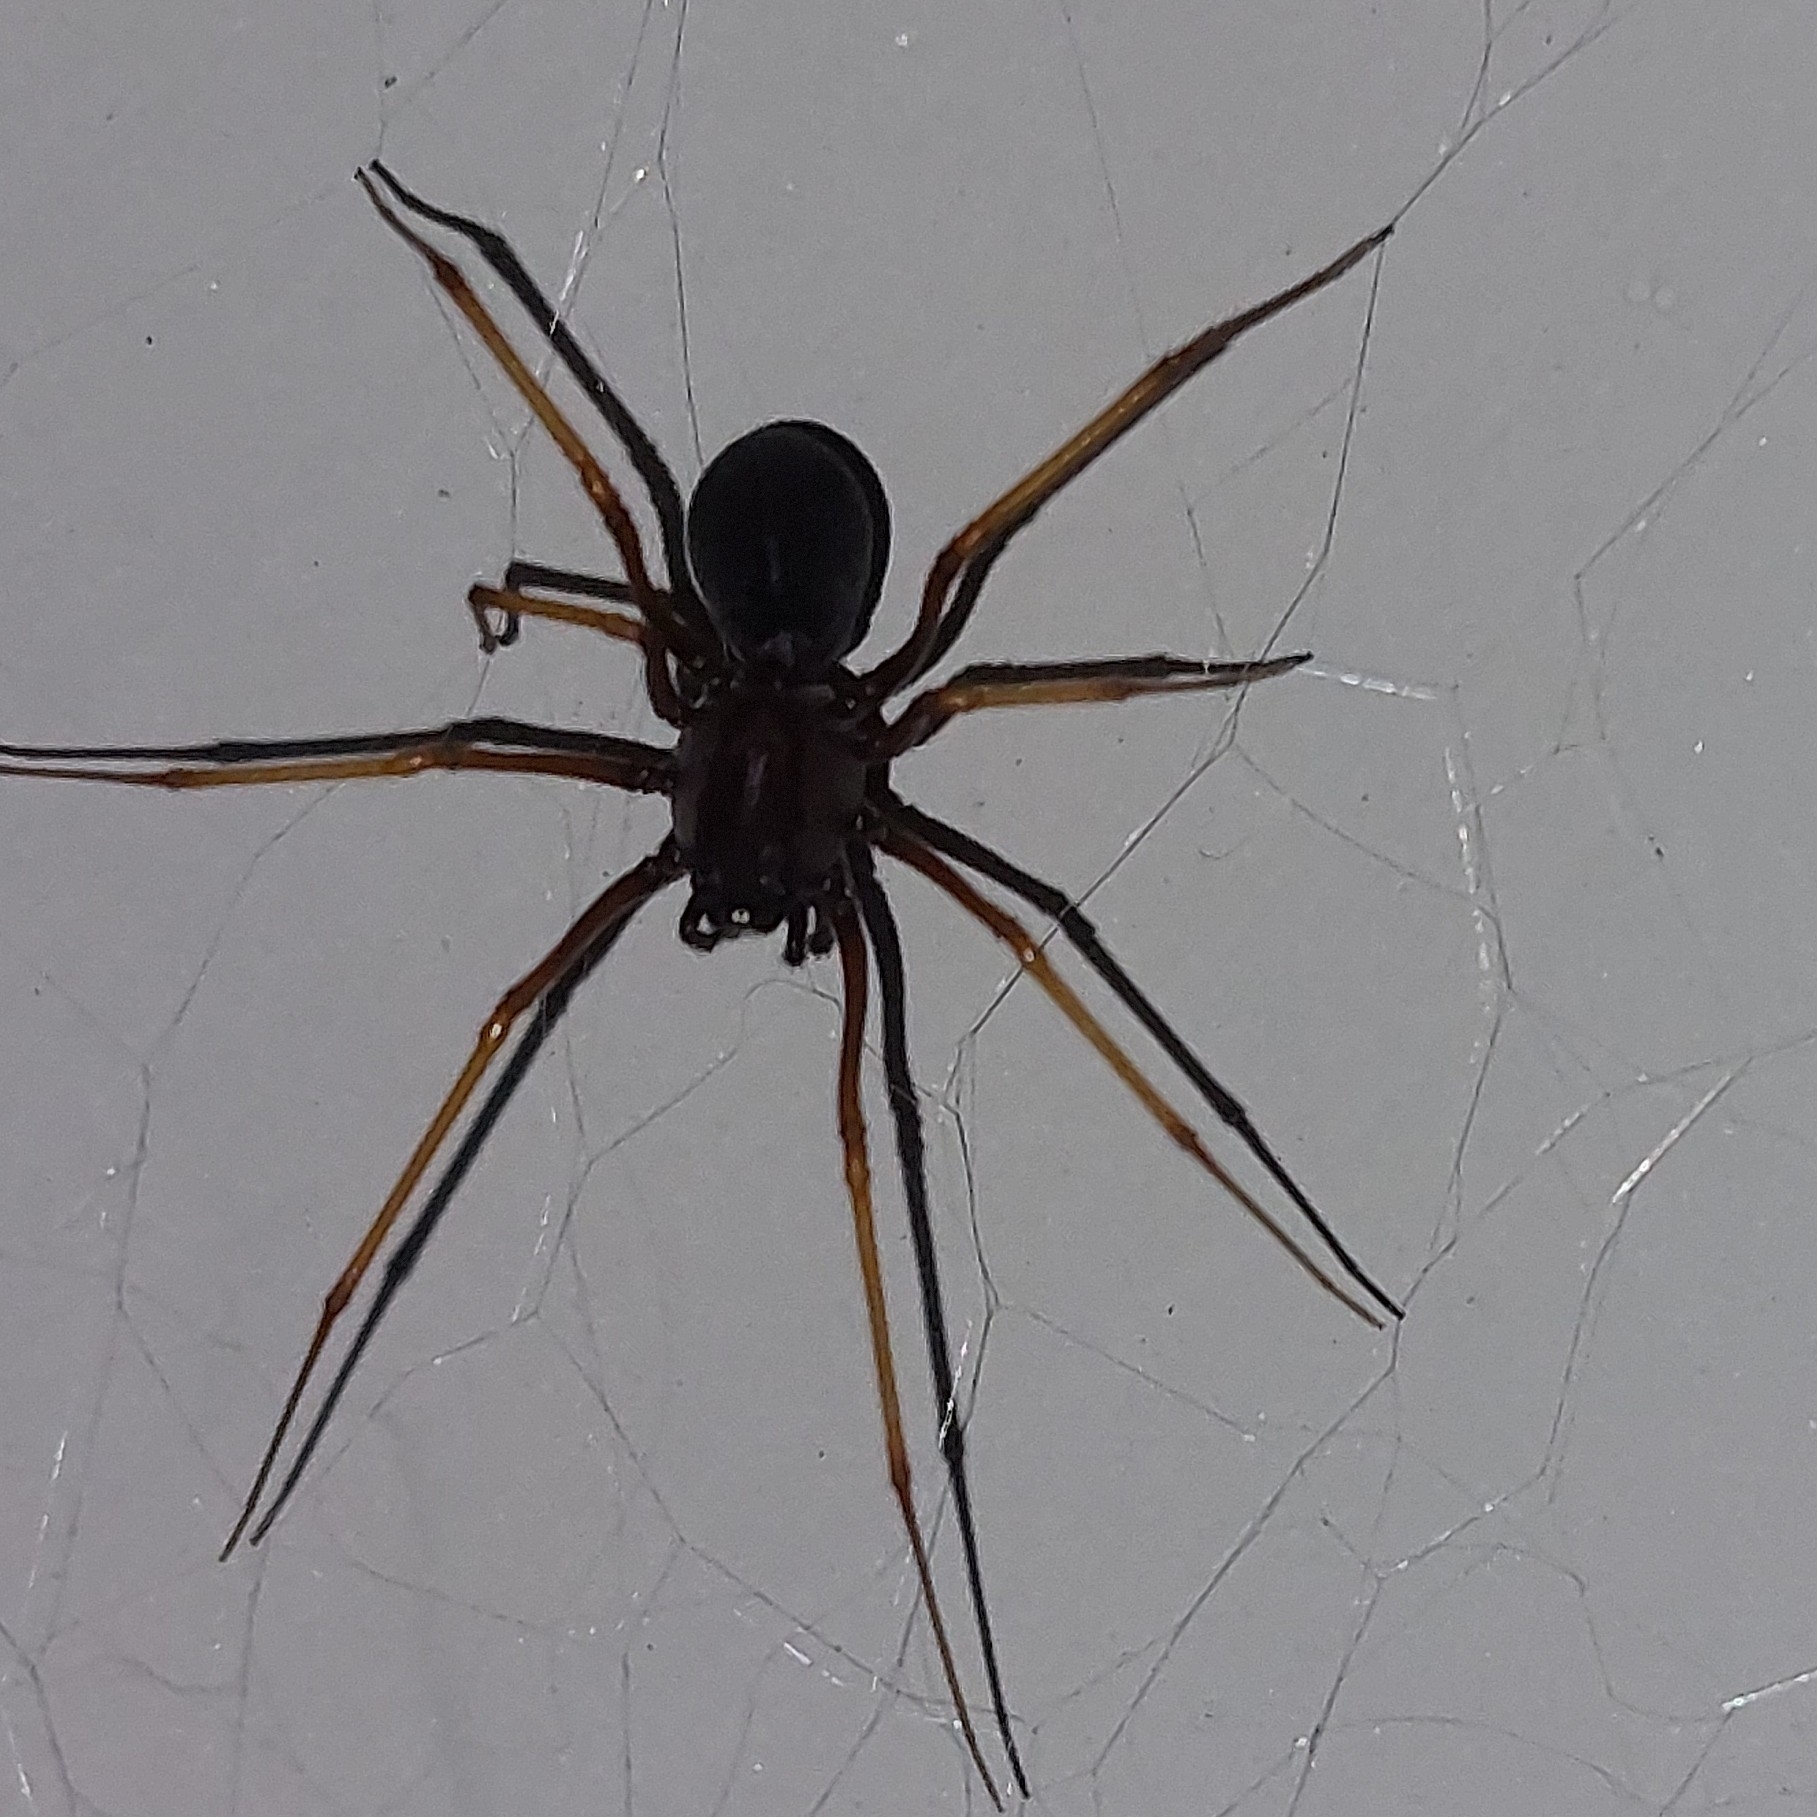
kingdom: Animalia
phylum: Arthropoda
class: Arachnida
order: Araneae
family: Scytodidae
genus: Scytodes
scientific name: Scytodes fusca
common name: Spitting spiders
